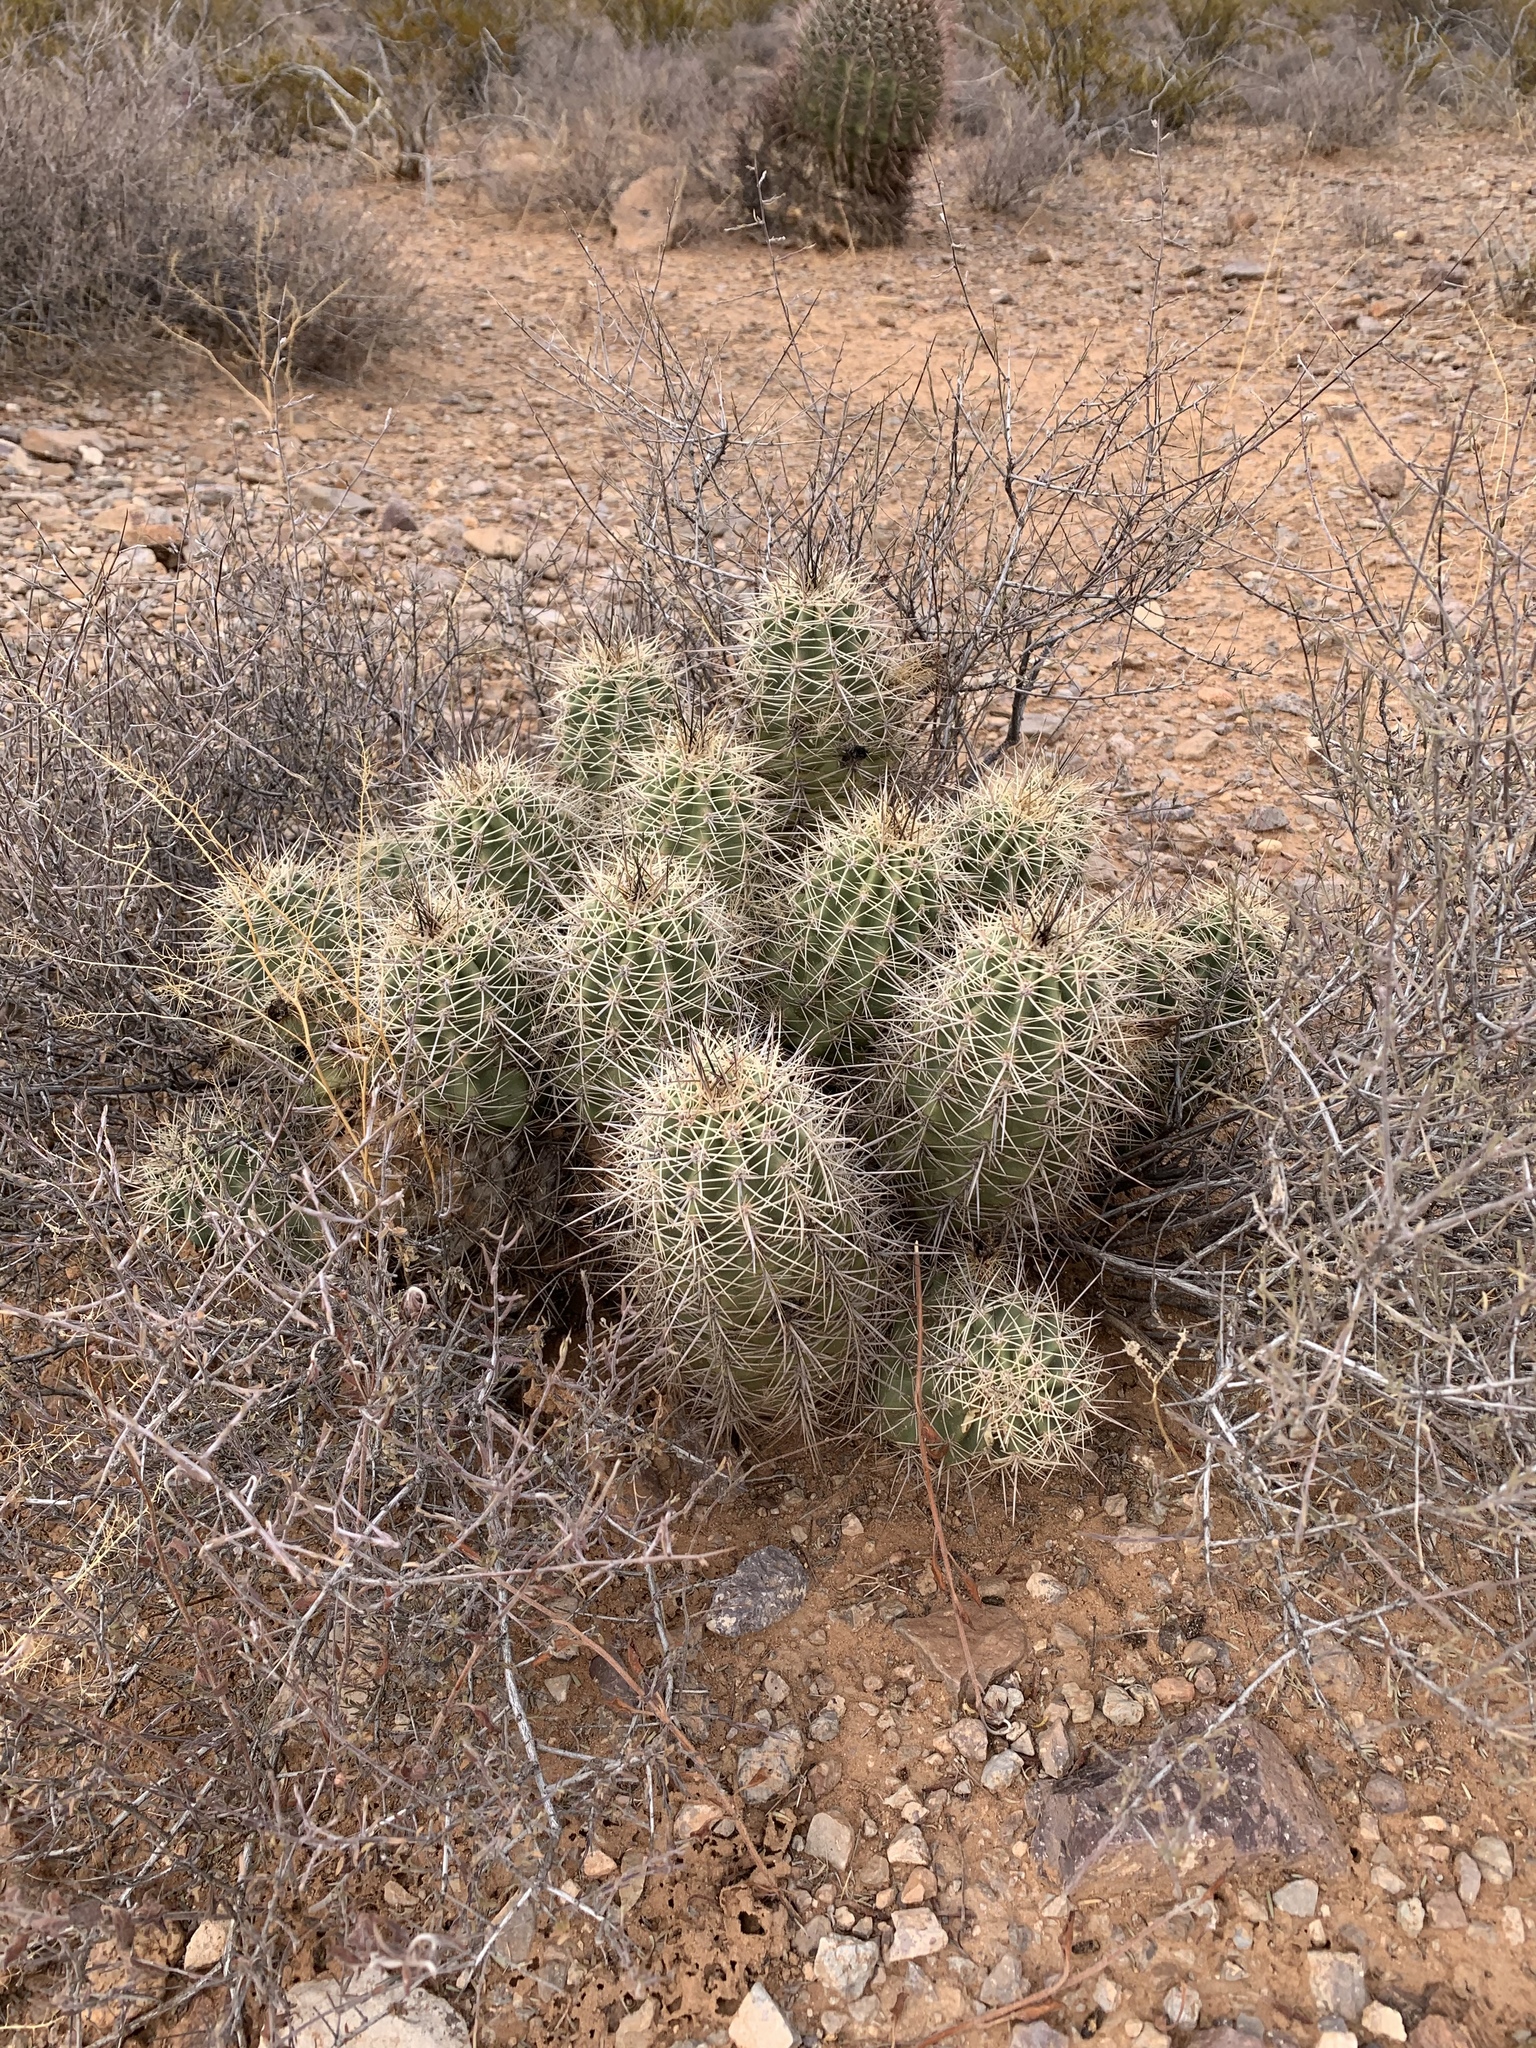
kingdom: Plantae
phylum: Tracheophyta
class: Magnoliopsida
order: Caryophyllales
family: Cactaceae
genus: Echinocereus
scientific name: Echinocereus coccineus
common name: Scarlet hedgehog cactus
